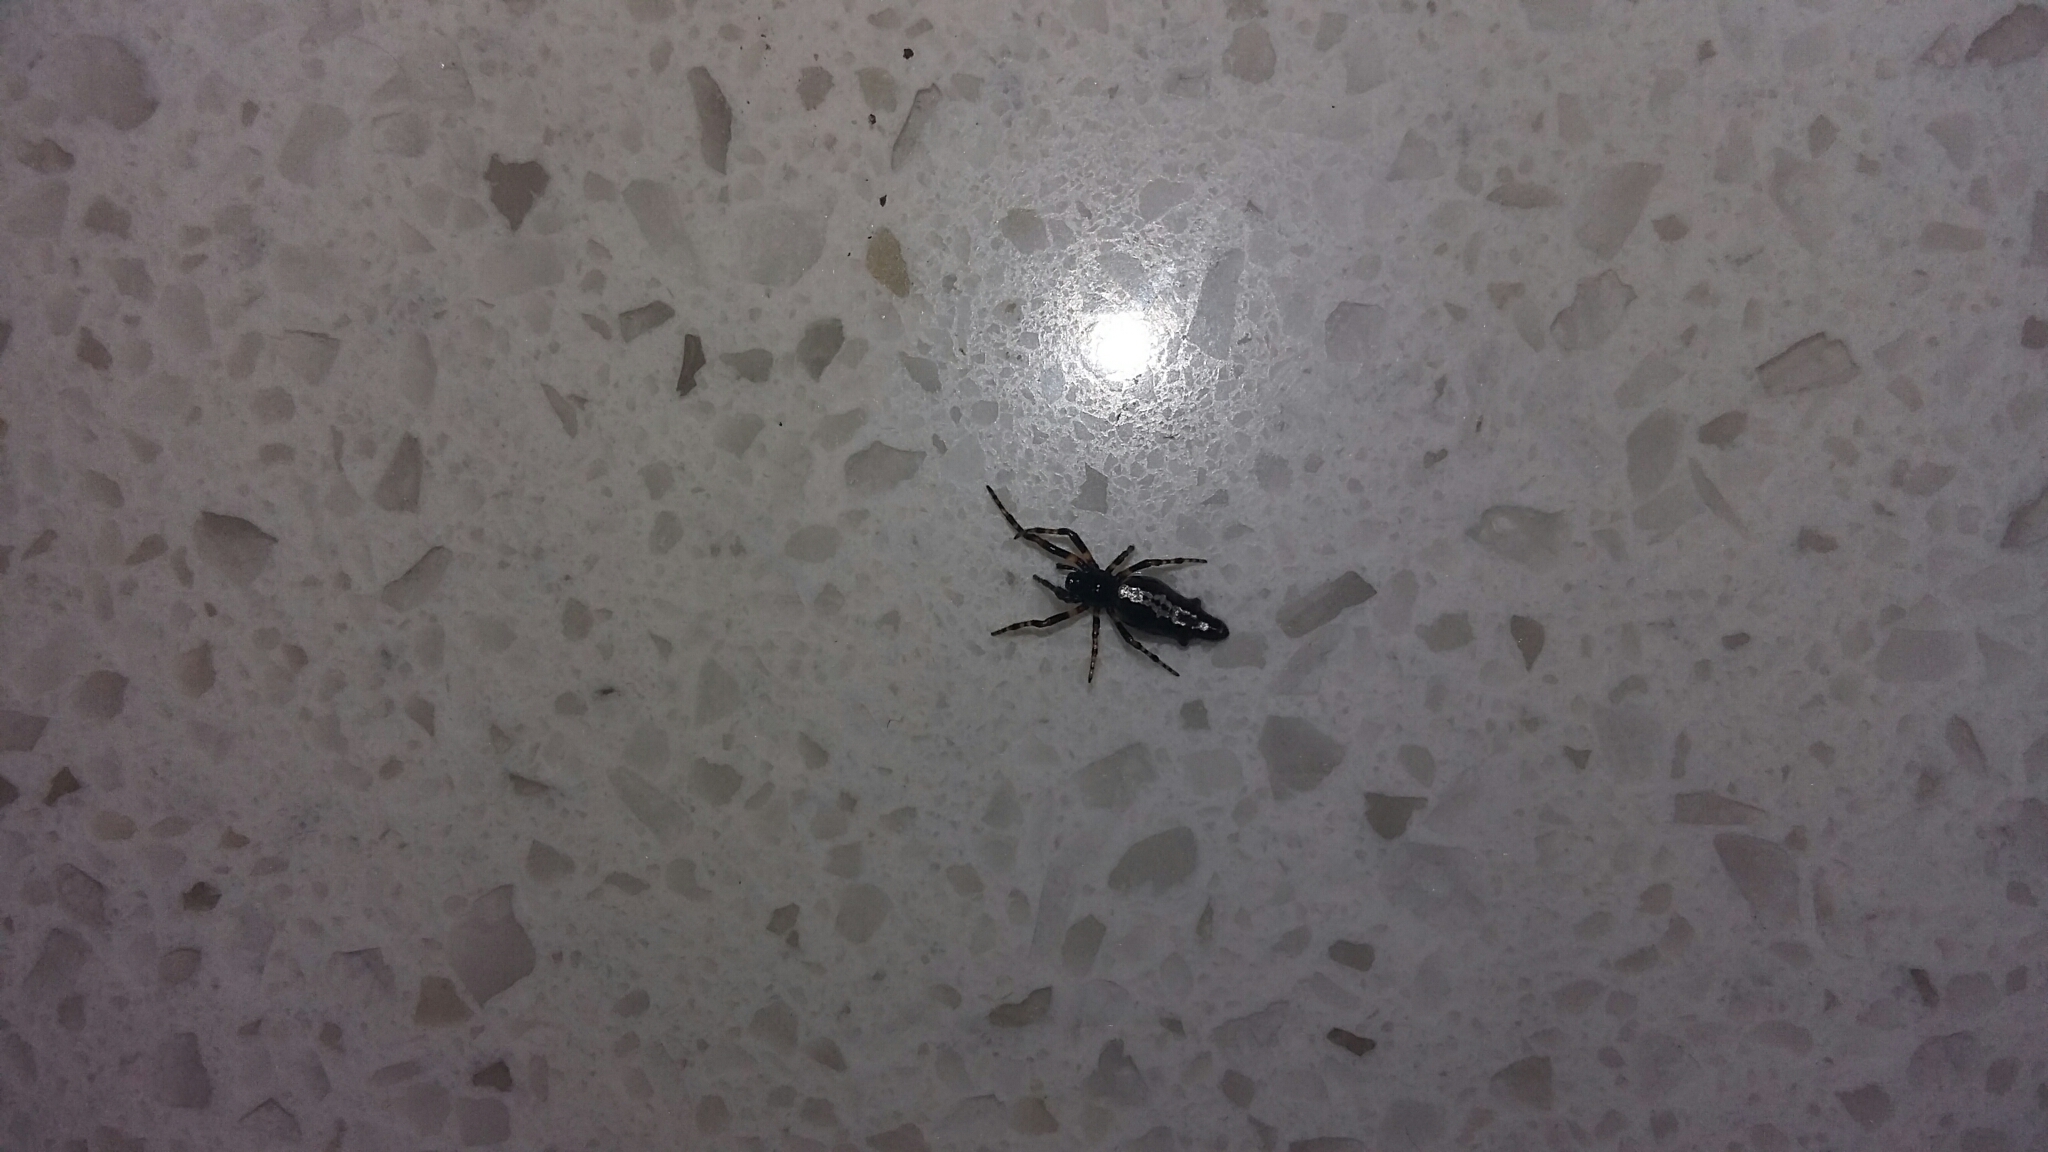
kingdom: Animalia
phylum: Arthropoda
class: Arachnida
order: Araneae
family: Araneidae
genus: Cyclosa
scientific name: Cyclosa trilobata
